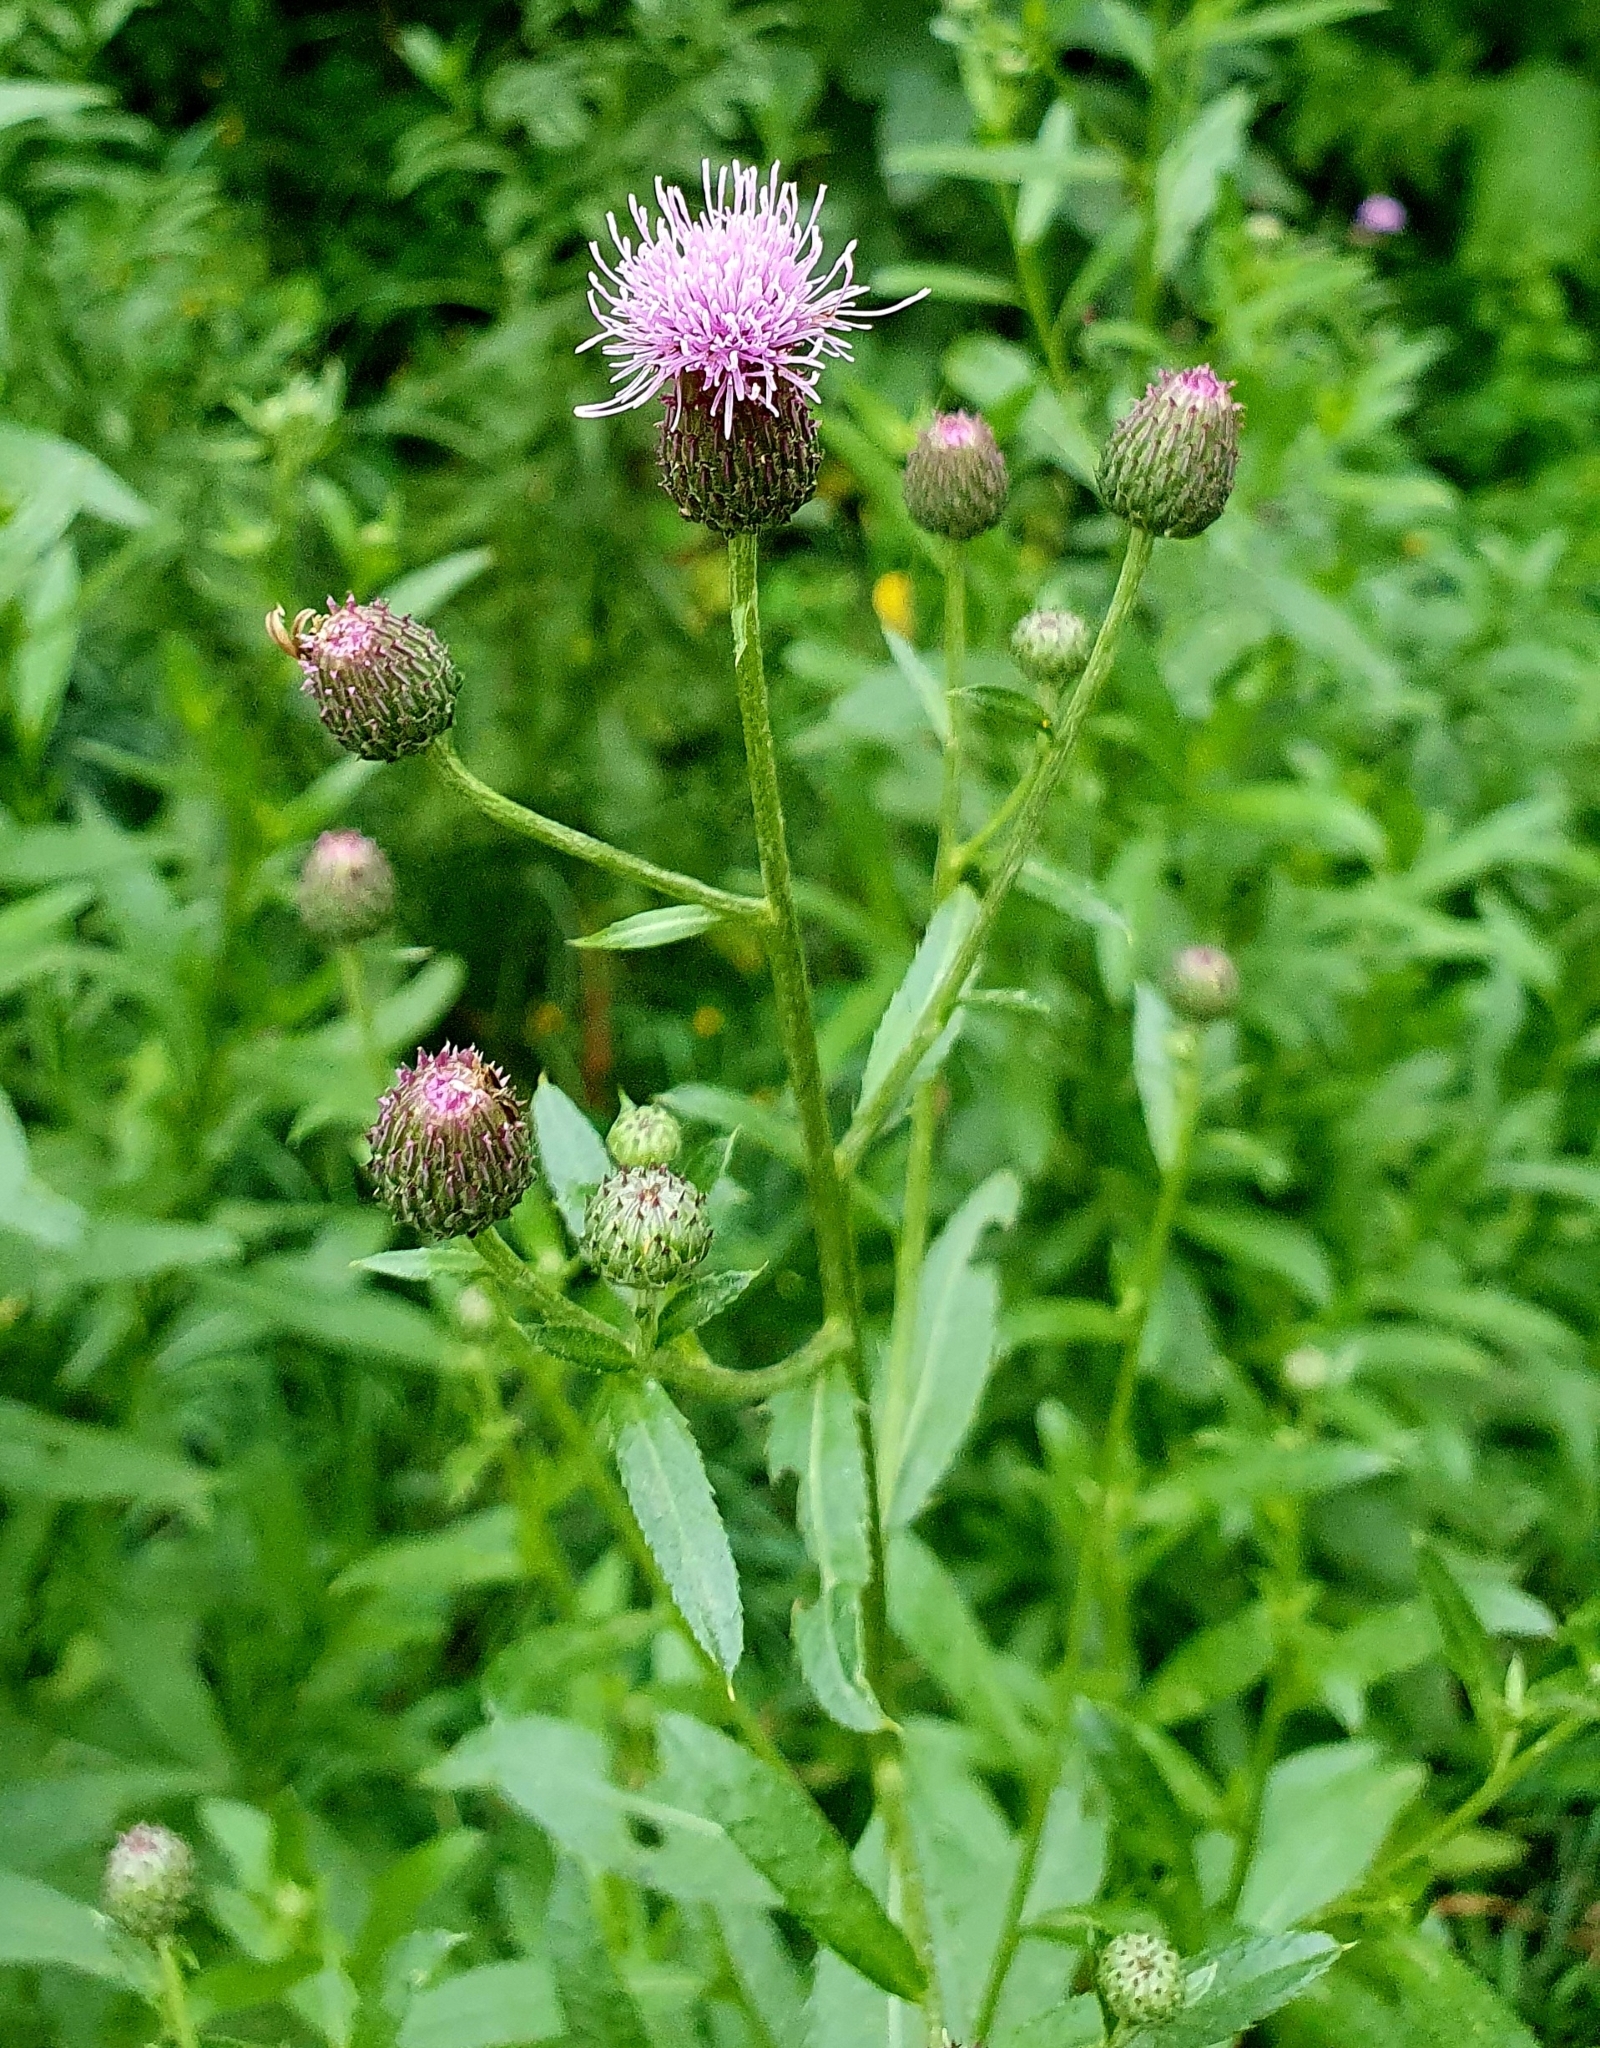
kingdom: Plantae
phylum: Tracheophyta
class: Magnoliopsida
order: Asterales
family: Asteraceae
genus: Cirsium
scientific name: Cirsium arvense
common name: Creeping thistle
